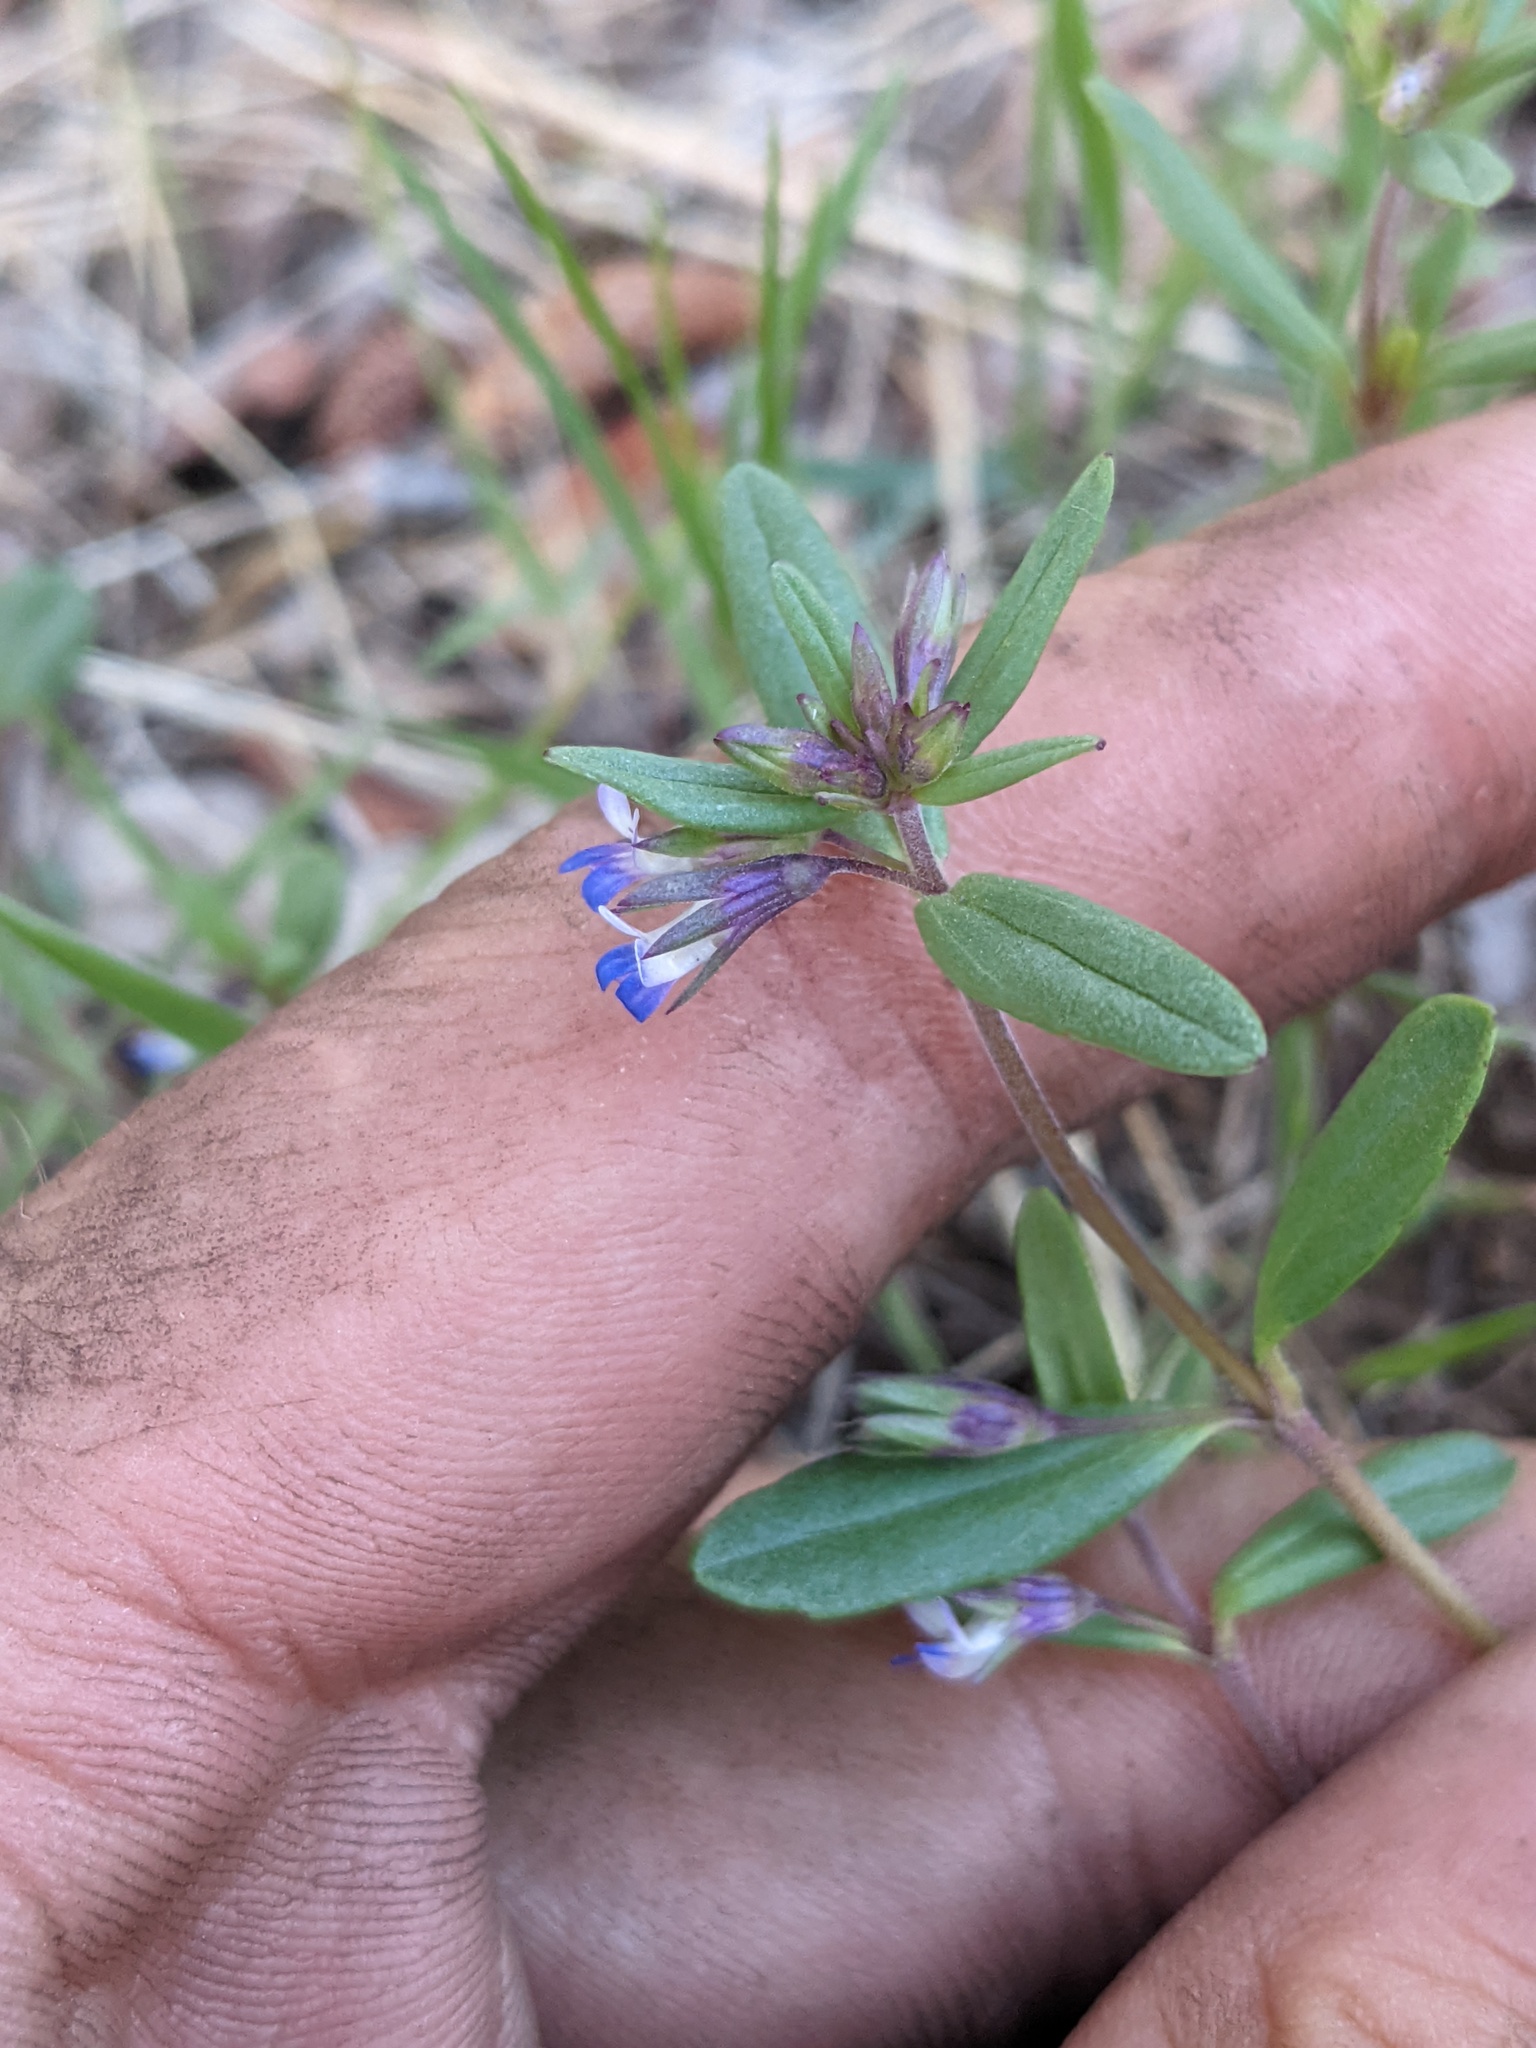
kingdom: Plantae
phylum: Tracheophyta
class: Magnoliopsida
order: Lamiales
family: Plantaginaceae
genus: Collinsia
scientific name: Collinsia parviflora
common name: Blue-lips
